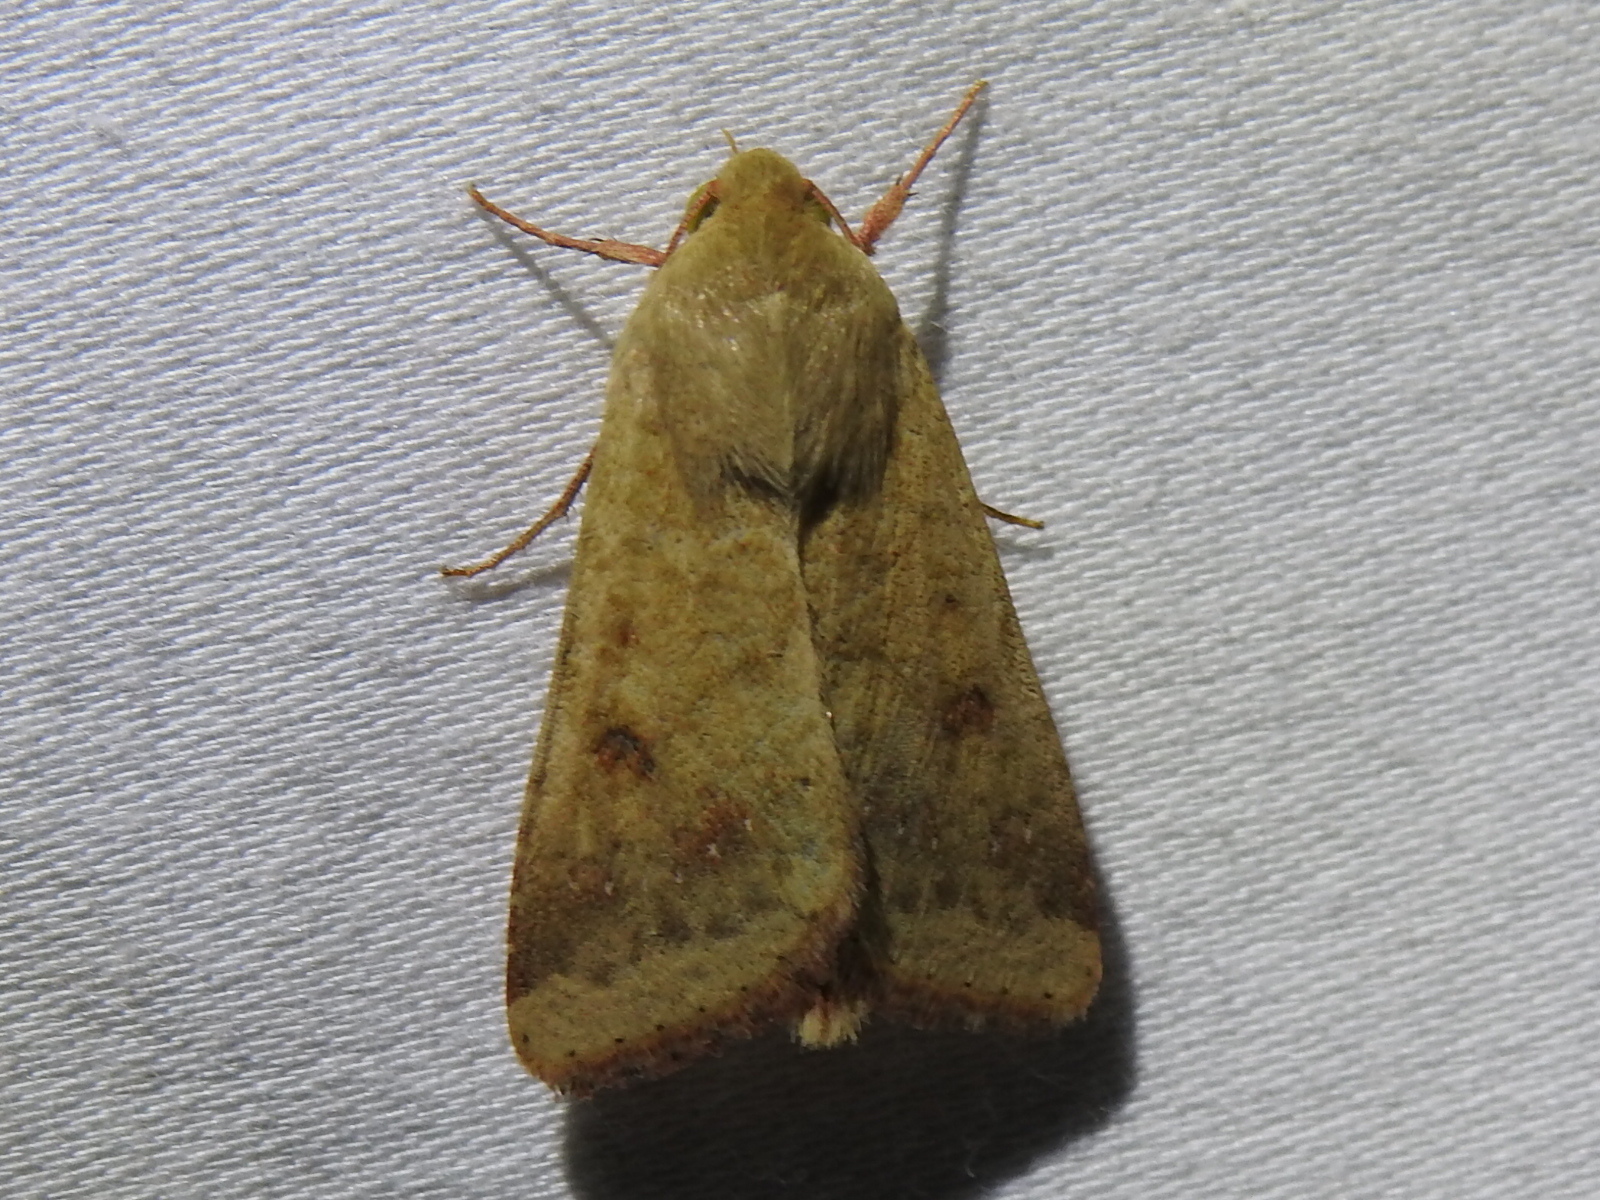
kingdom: Animalia
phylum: Arthropoda
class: Insecta
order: Lepidoptera
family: Noctuidae
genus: Helicoverpa
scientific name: Helicoverpa zea
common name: Bollworm
